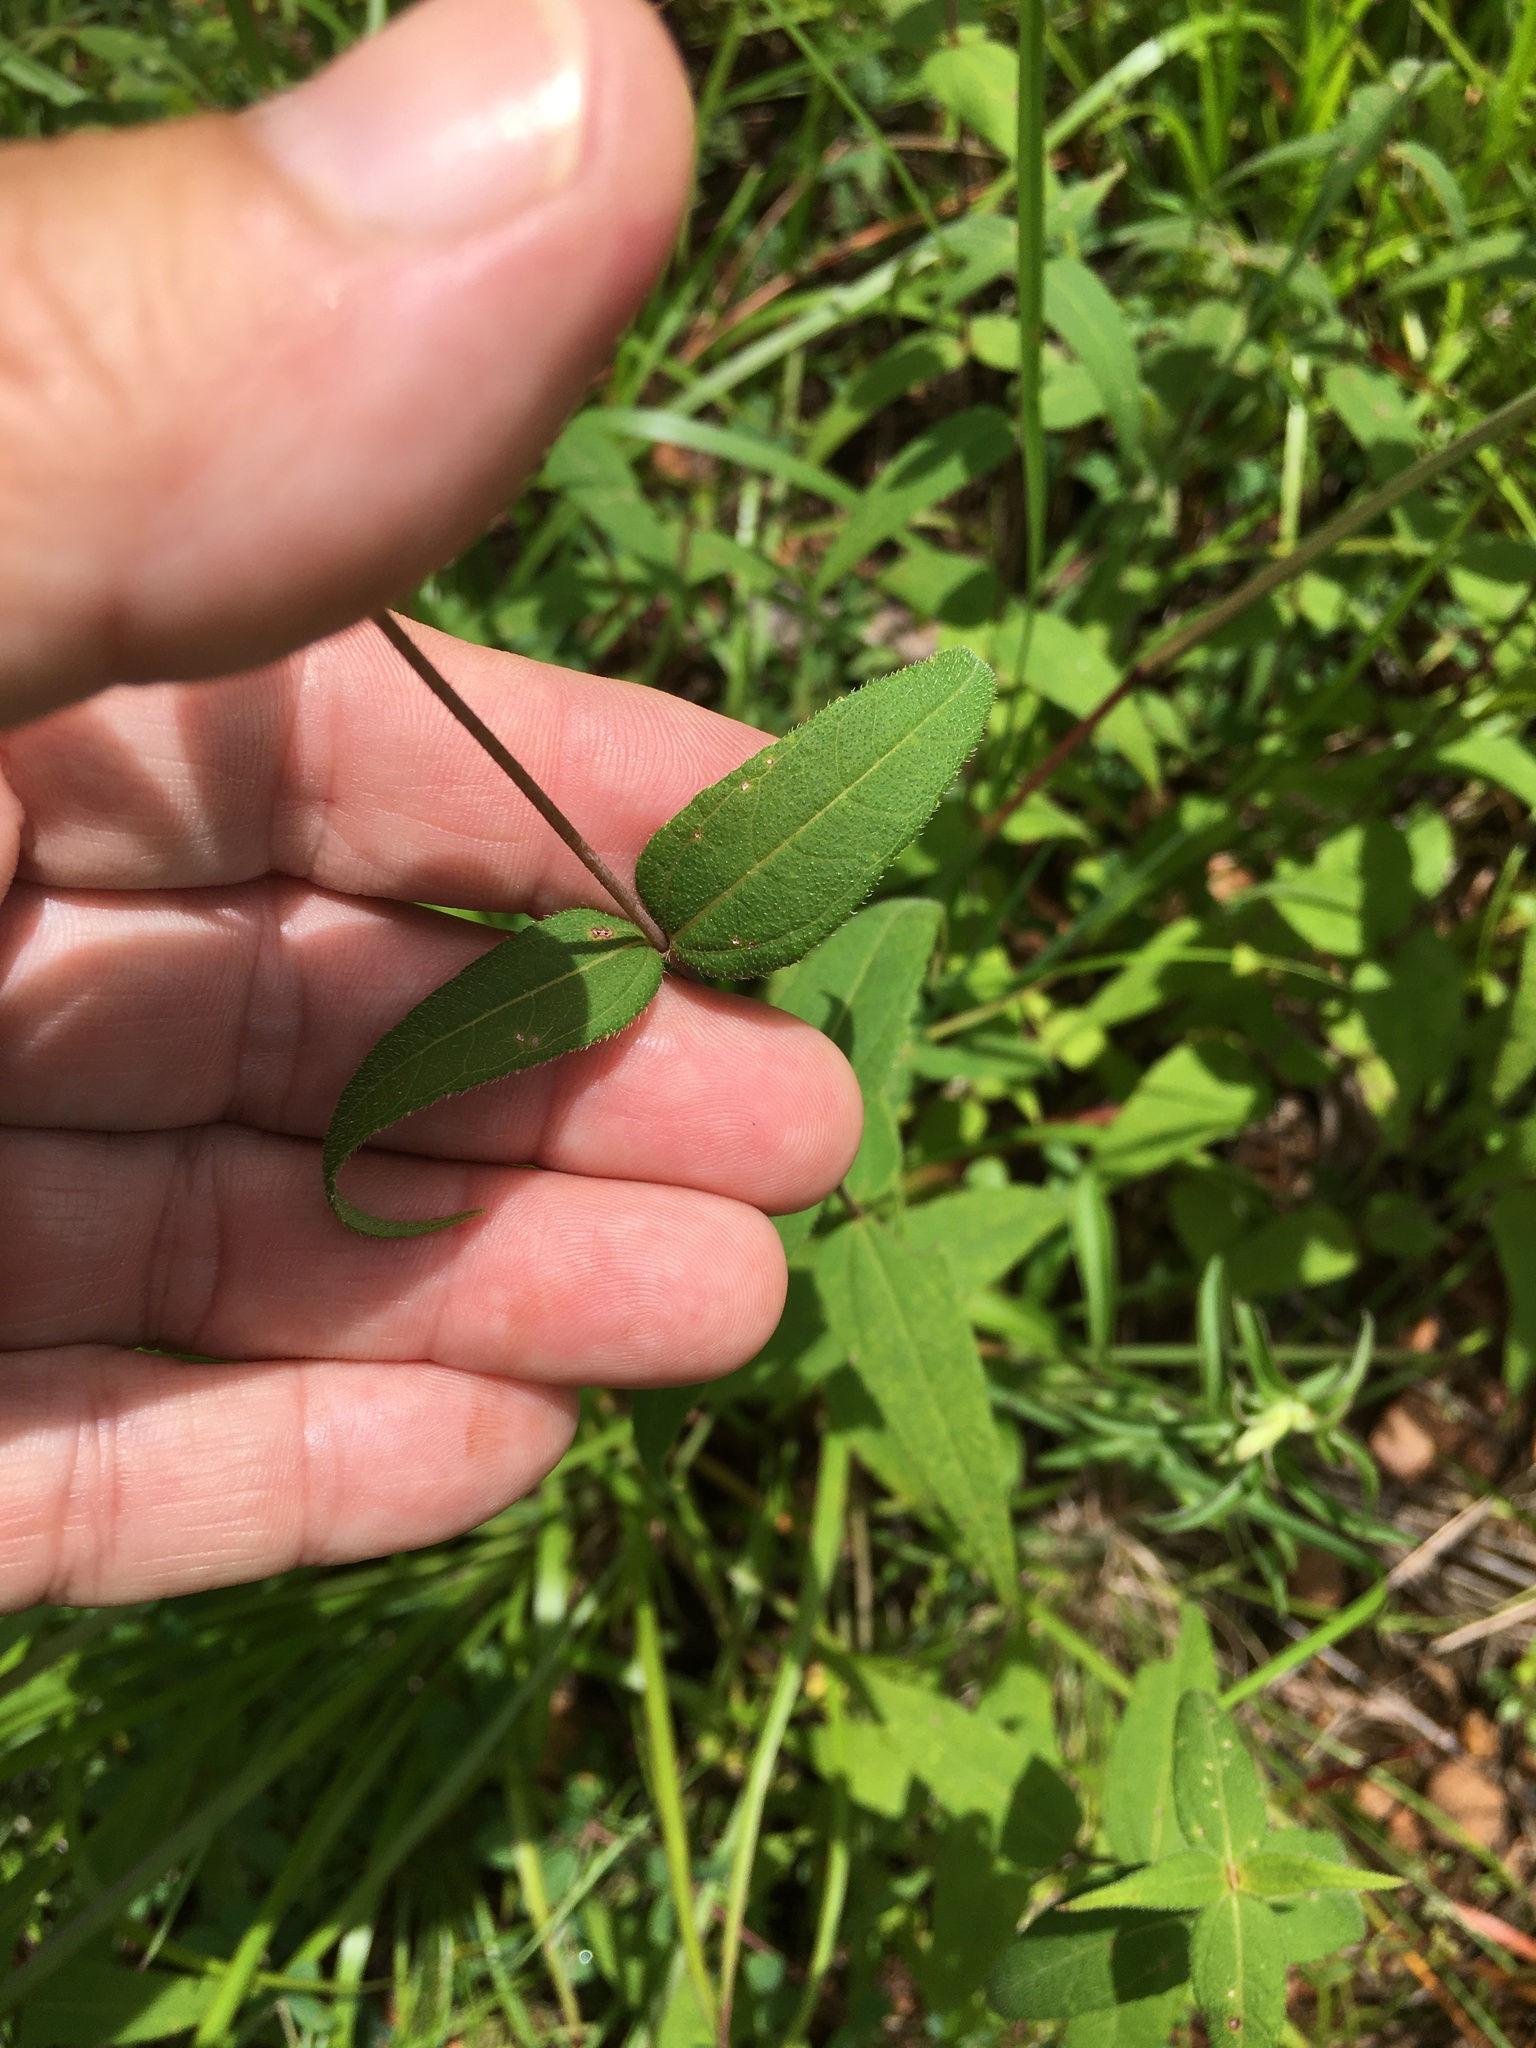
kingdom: Plantae
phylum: Tracheophyta
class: Magnoliopsida
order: Asterales
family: Asteraceae
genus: Helianthus
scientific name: Helianthus divaricatus
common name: Divergent sunflower
